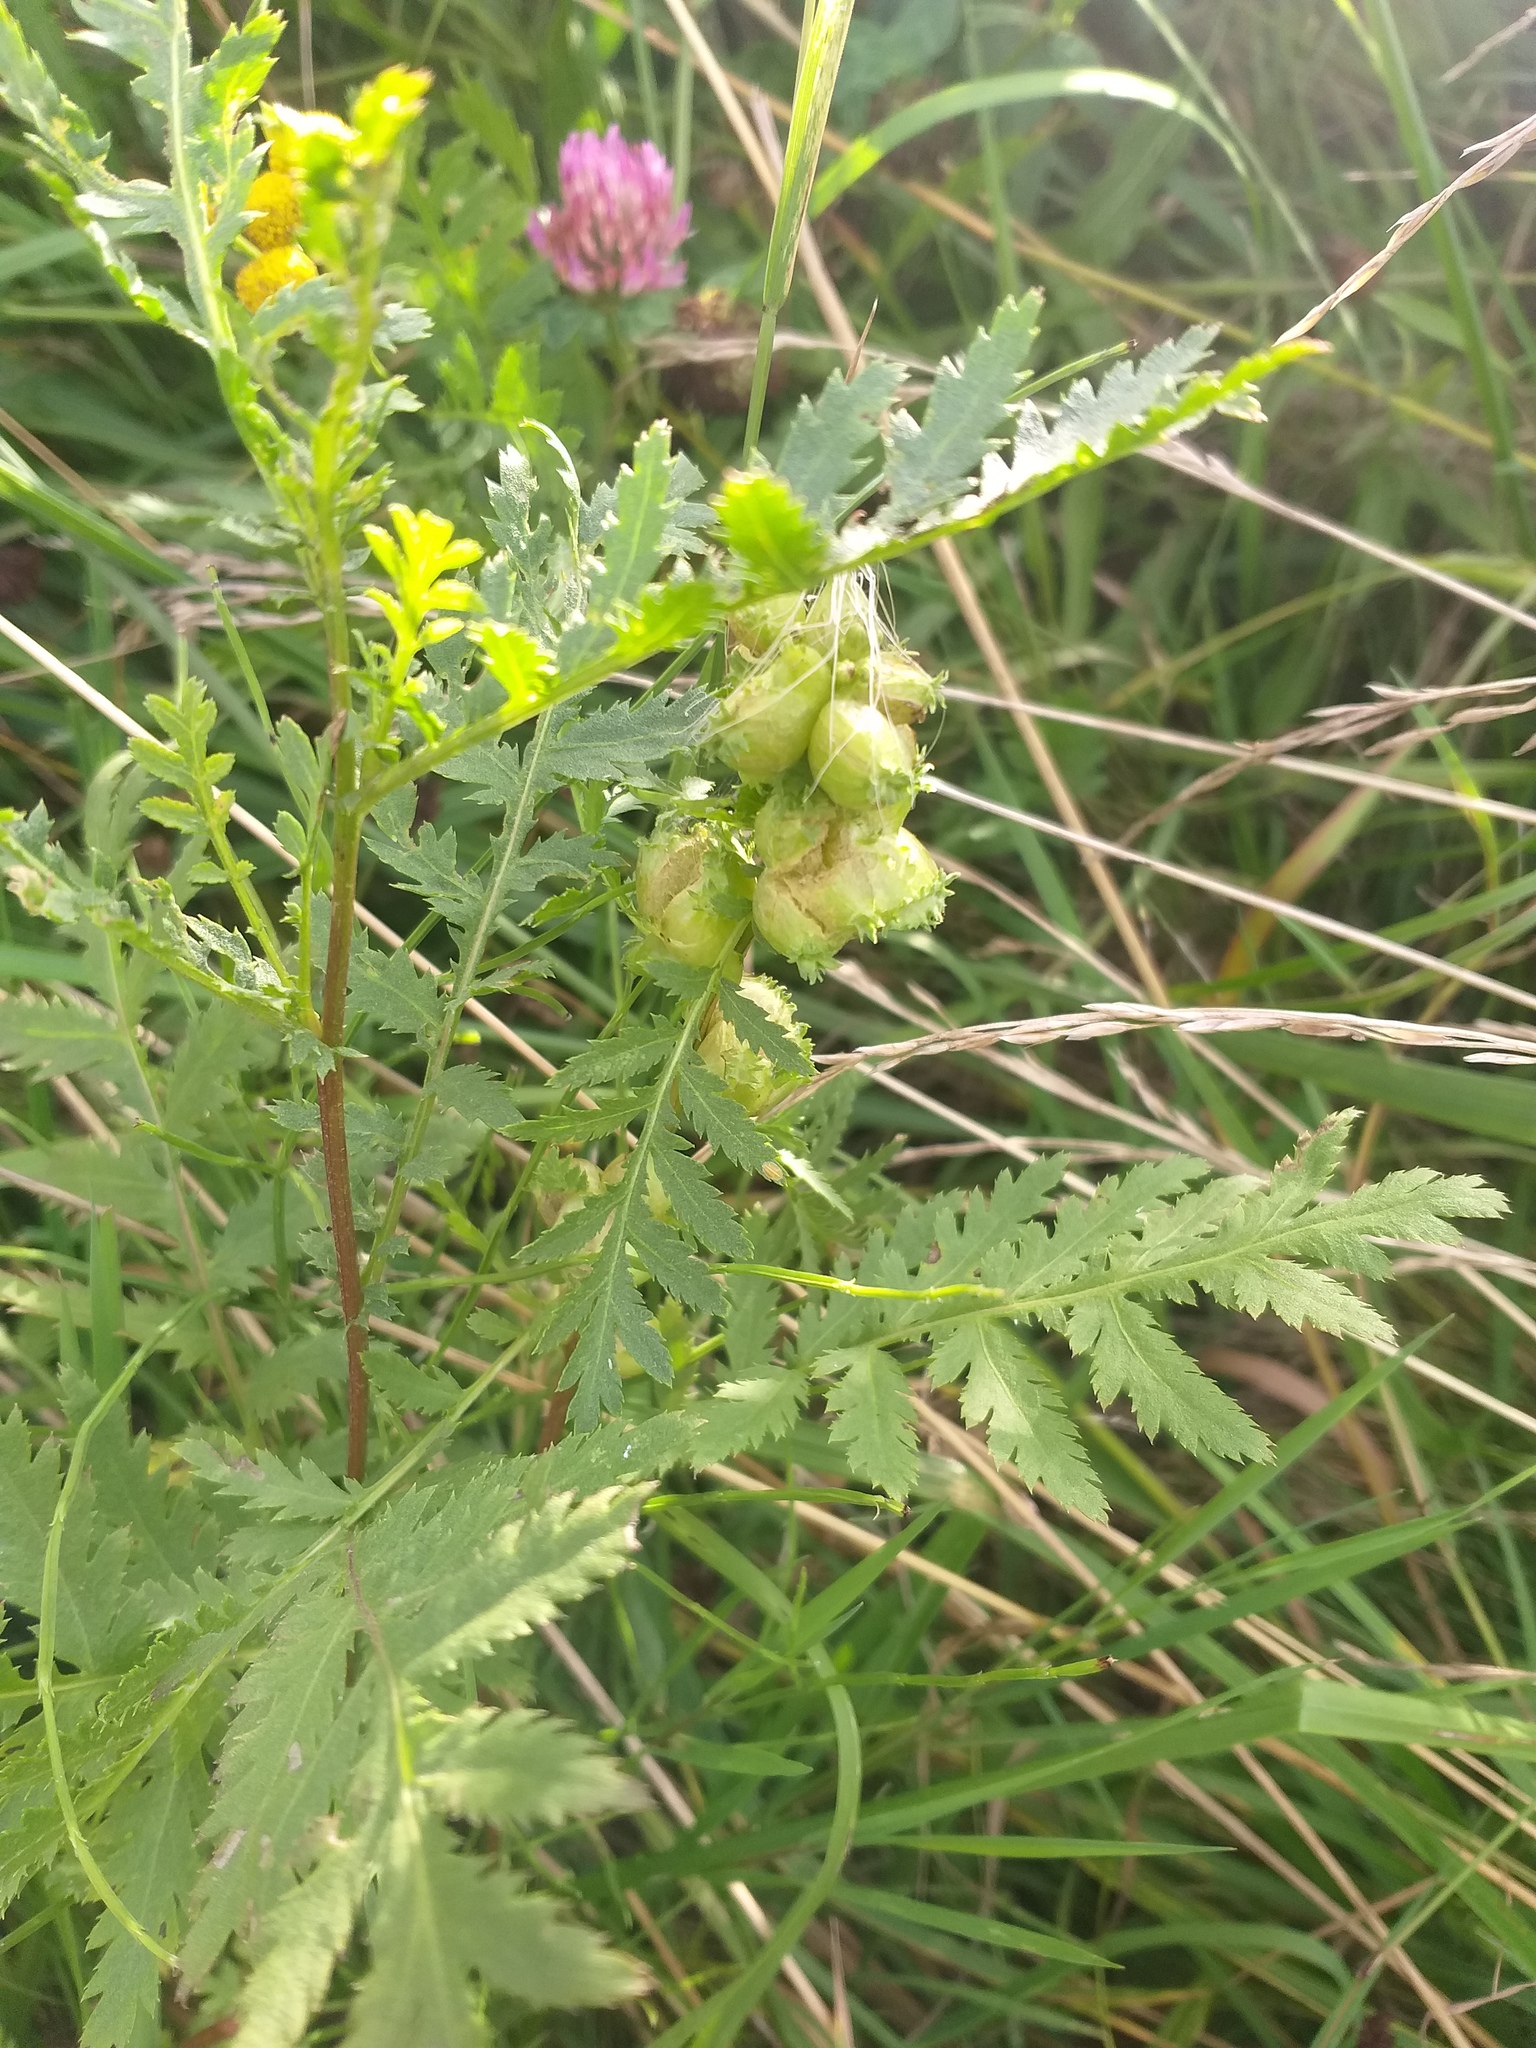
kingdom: Animalia
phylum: Arthropoda
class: Insecta
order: Diptera
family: Cecidomyiidae
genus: Rhopalomyia
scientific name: Rhopalomyia tanaceticolus
